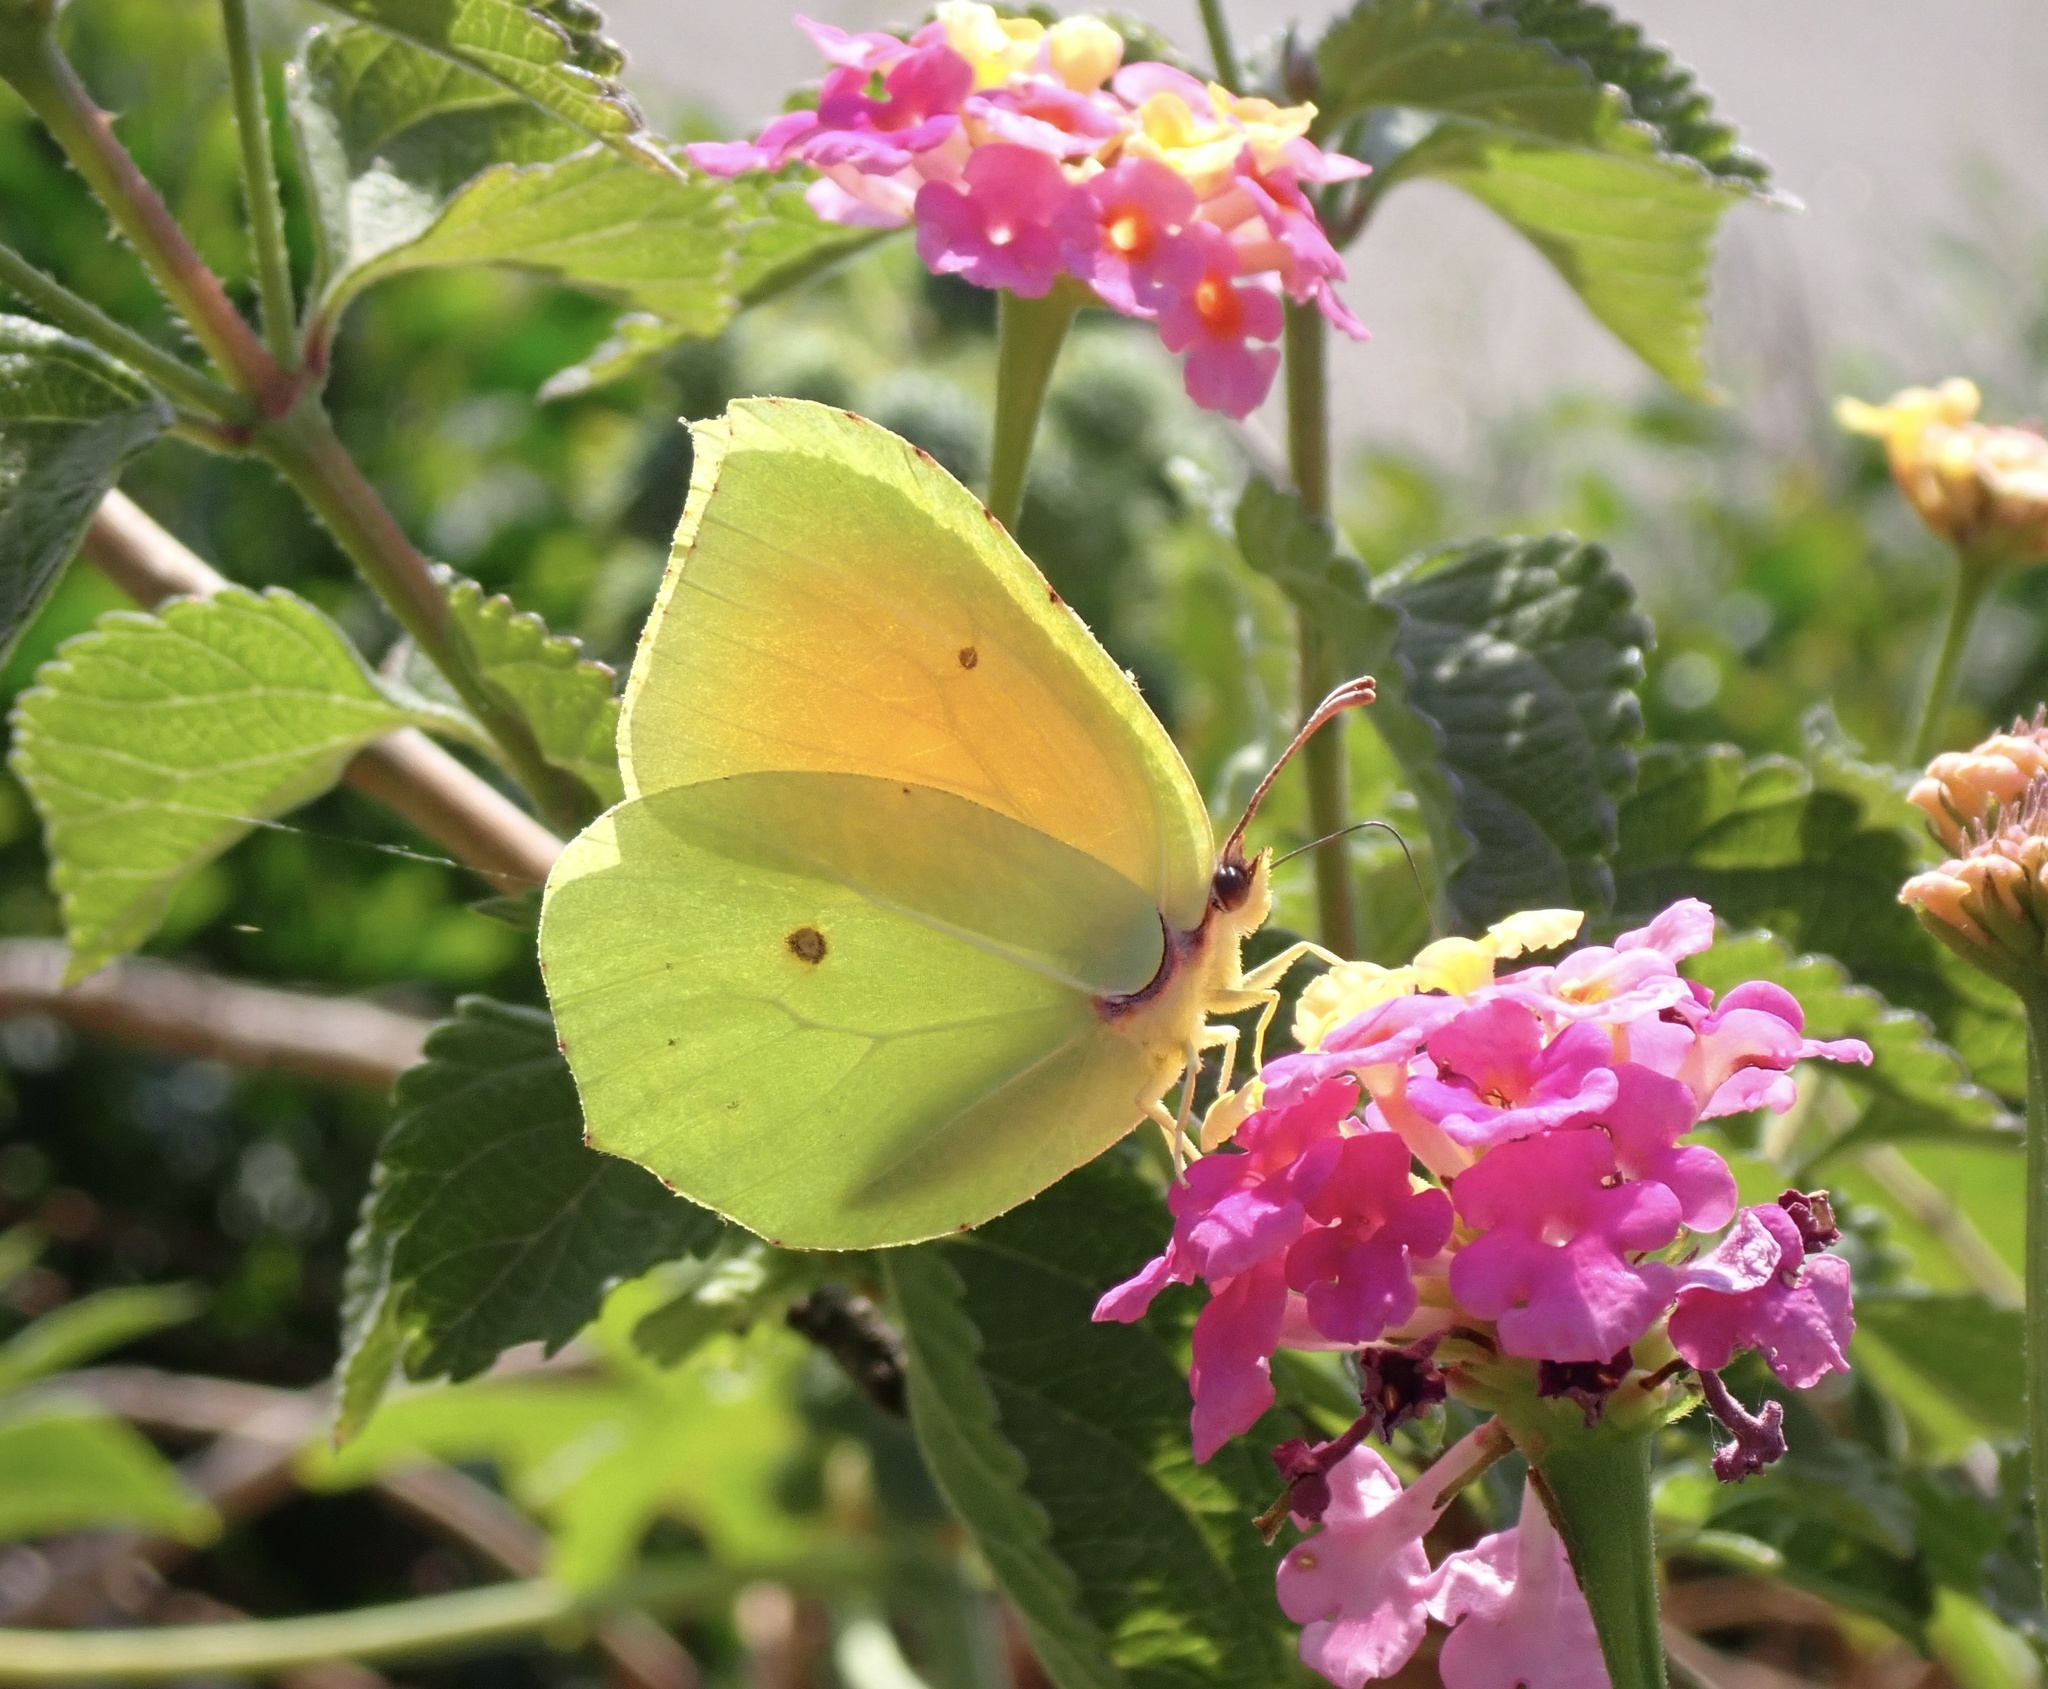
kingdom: Animalia
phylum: Arthropoda
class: Insecta
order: Lepidoptera
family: Pieridae
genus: Gonepteryx
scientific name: Gonepteryx cleopatra
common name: Cleopatra
